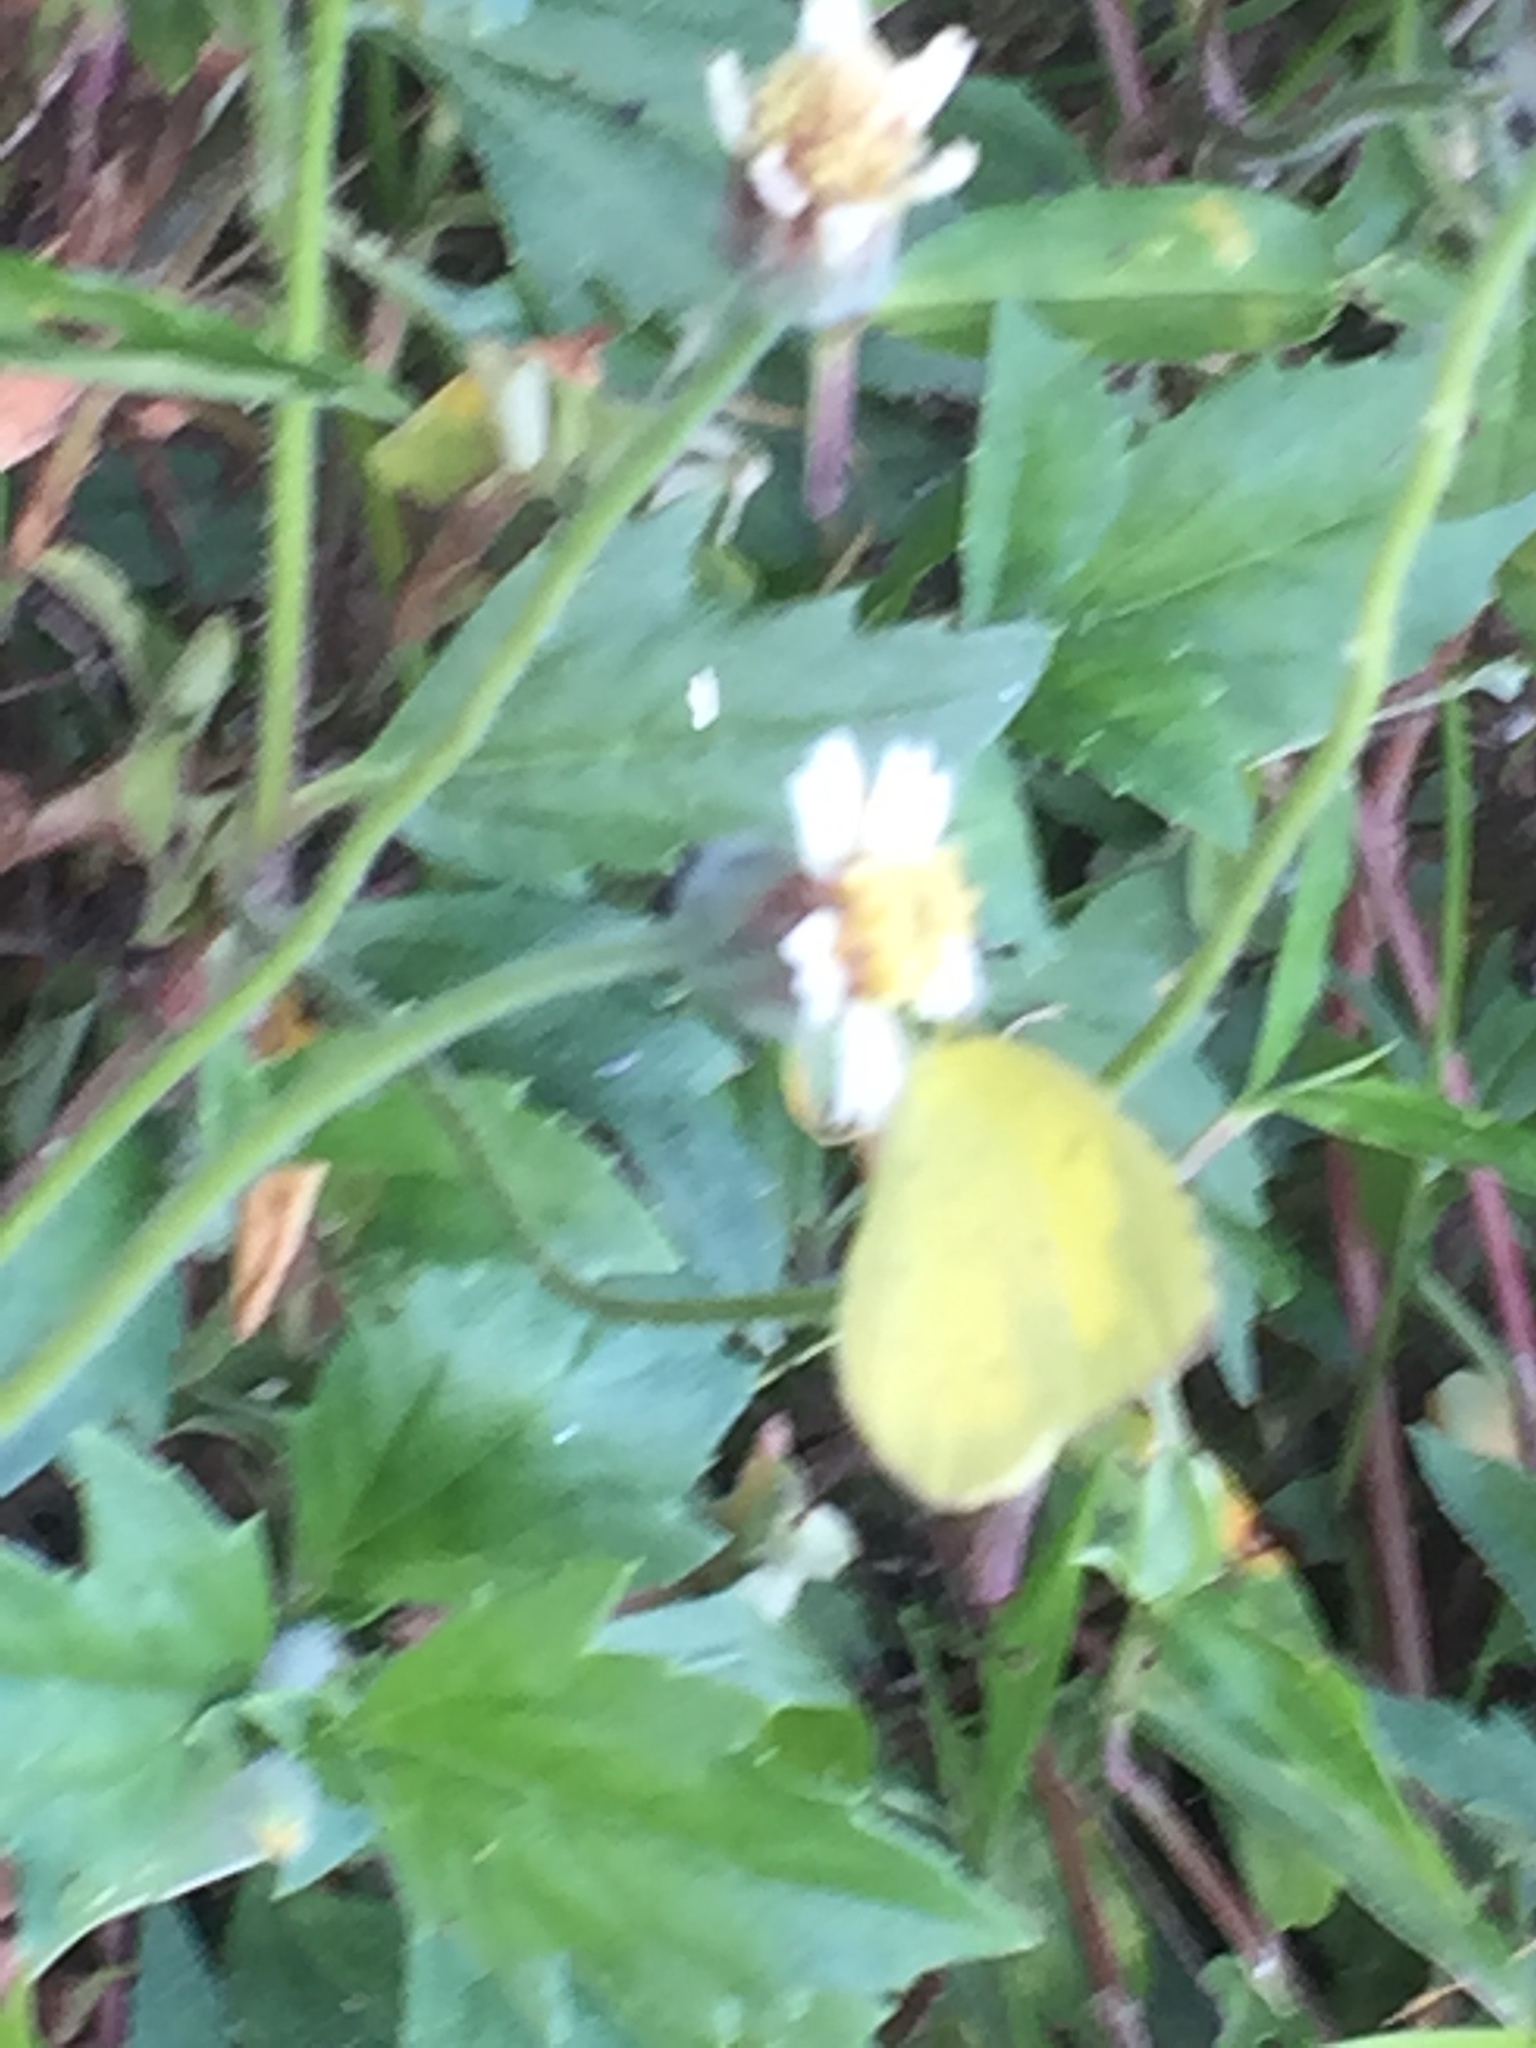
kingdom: Plantae
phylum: Tracheophyta
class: Magnoliopsida
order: Asterales
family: Asteraceae
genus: Tridax
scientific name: Tridax procumbens
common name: Coatbuttons
